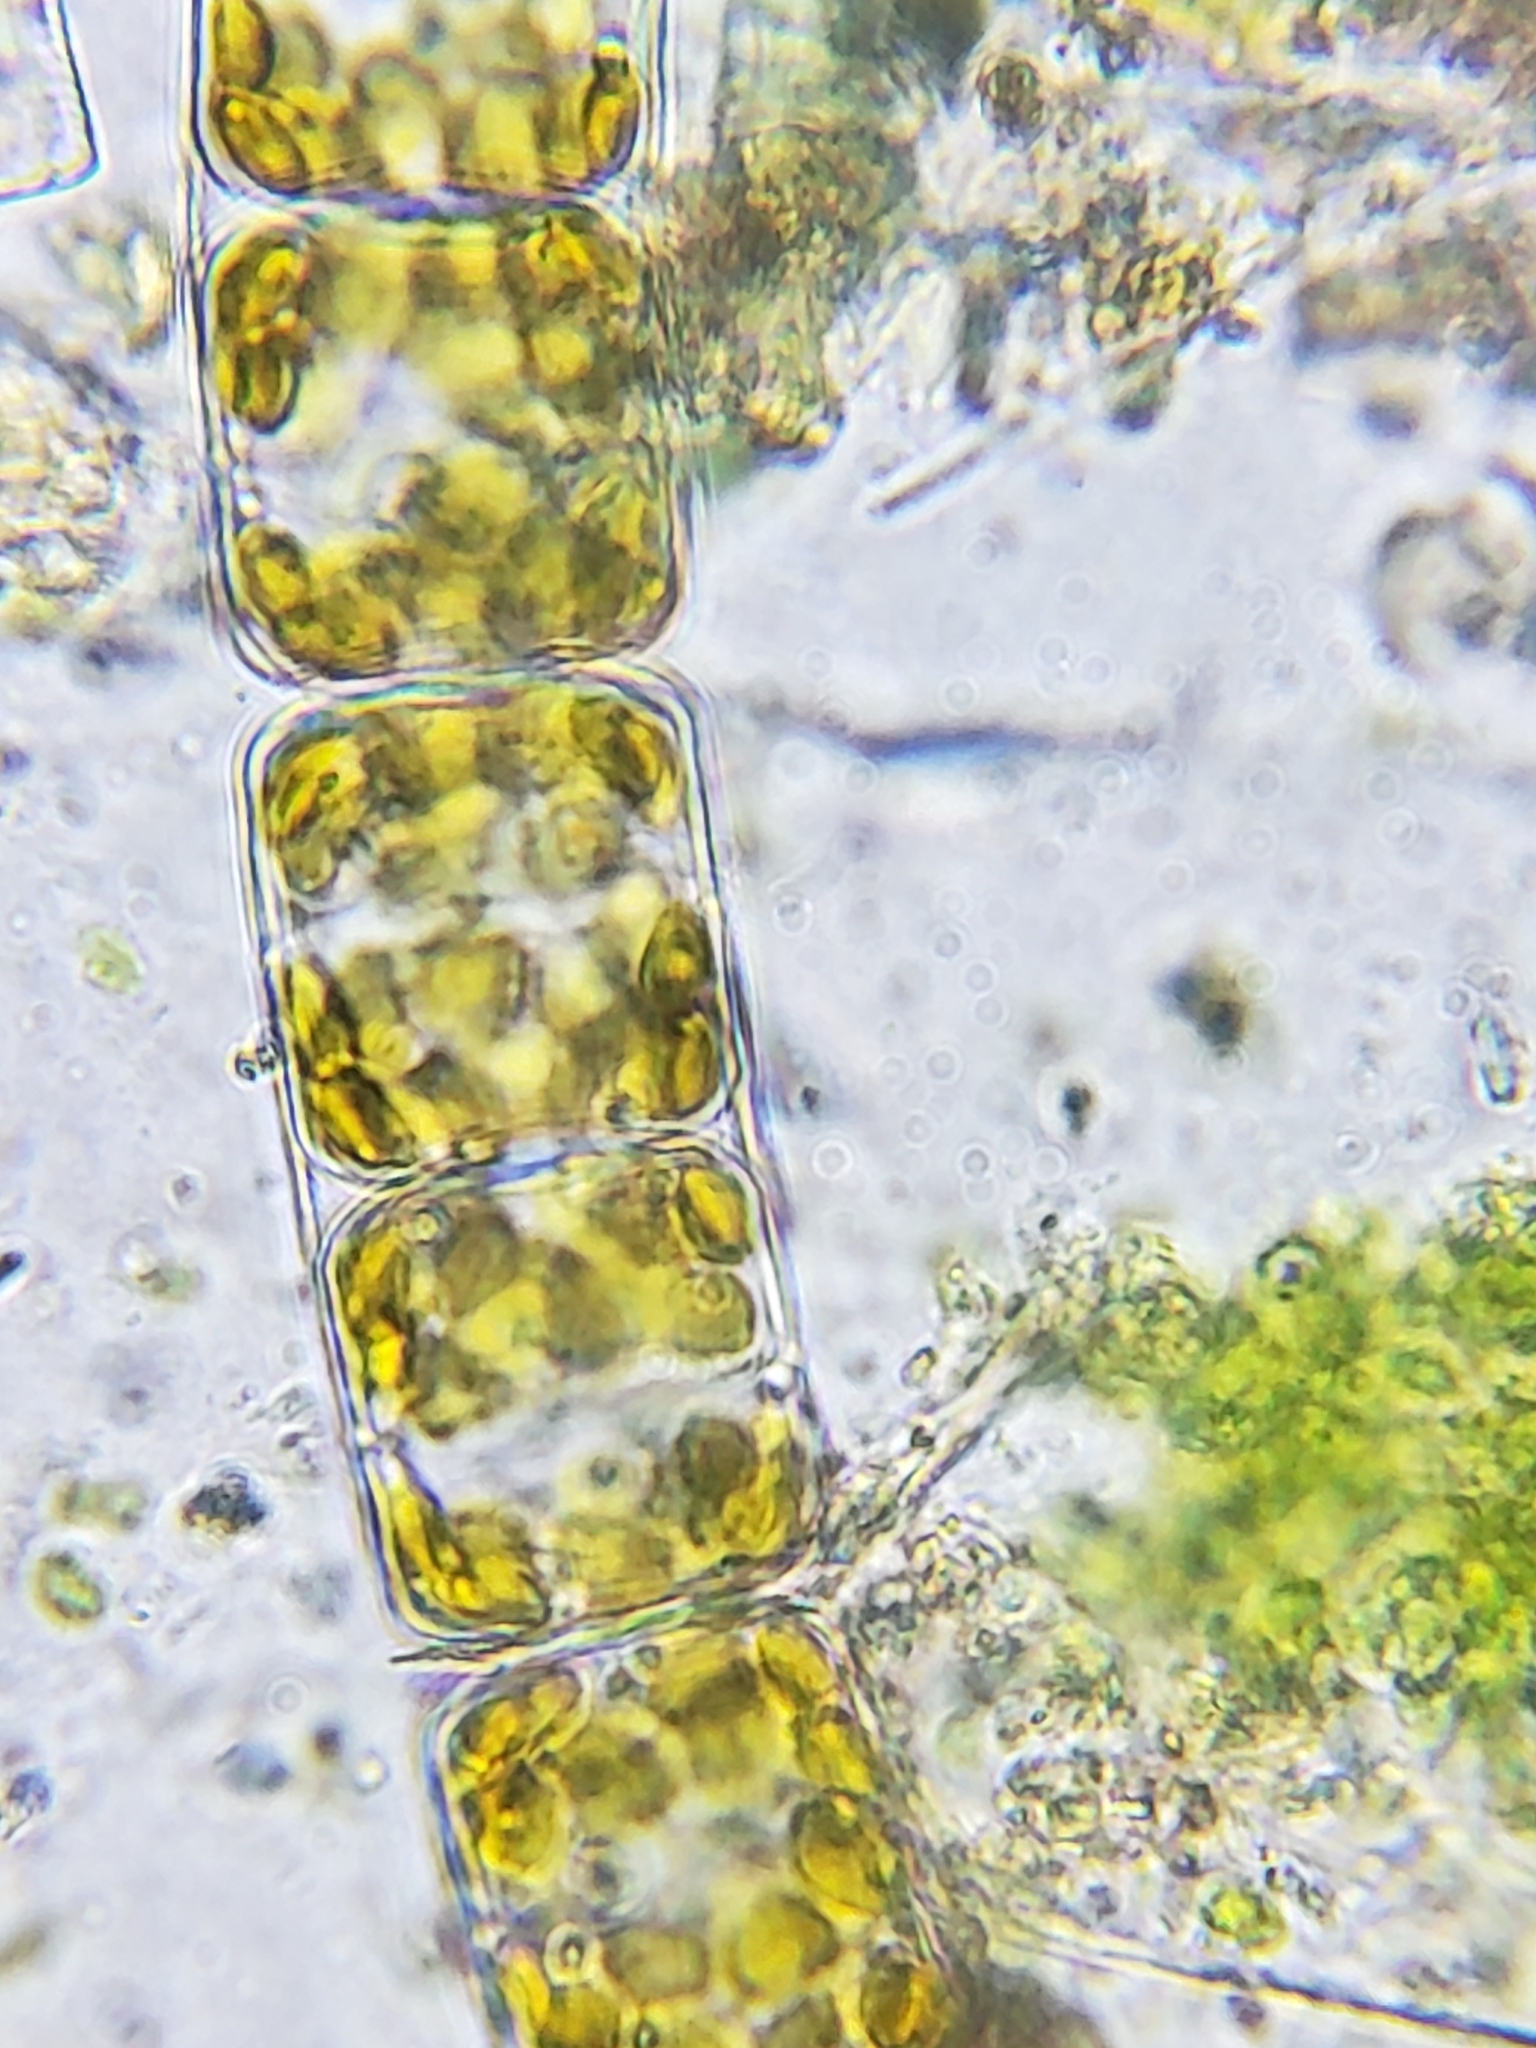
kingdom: Chromista
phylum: Ochrophyta
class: Bacillariophyceae
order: Melosirales
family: Melosiraceae
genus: Melosira
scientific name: Melosira varians
